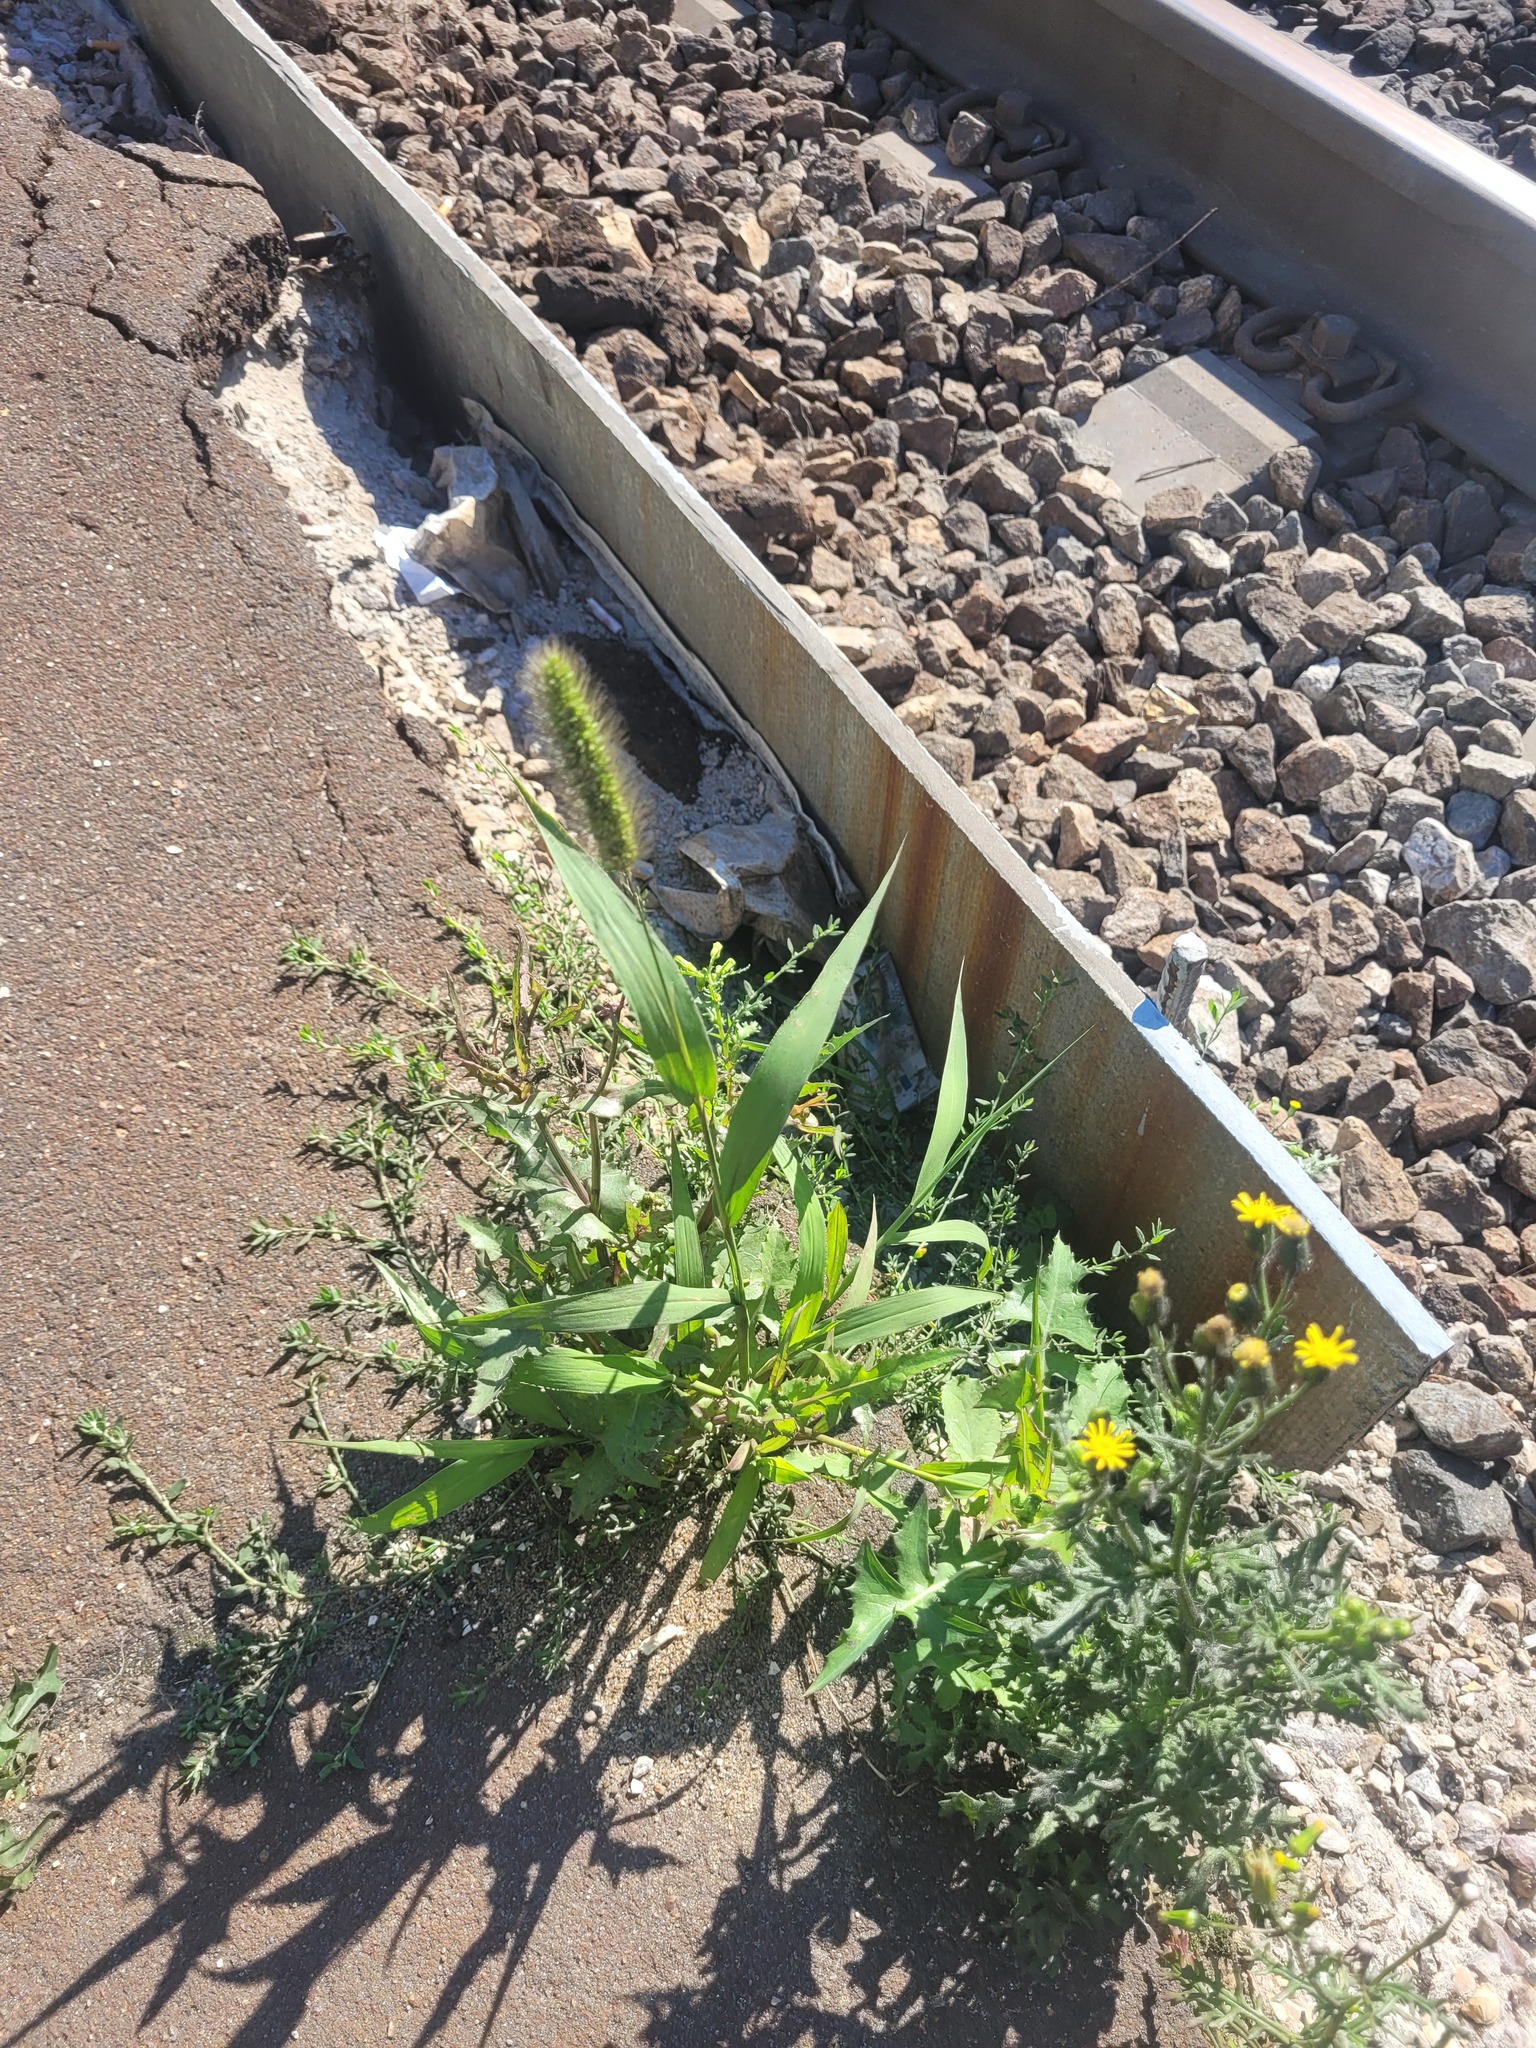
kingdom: Plantae
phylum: Tracheophyta
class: Liliopsida
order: Poales
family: Poaceae
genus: Setaria
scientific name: Setaria viridis
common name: Green bristlegrass
